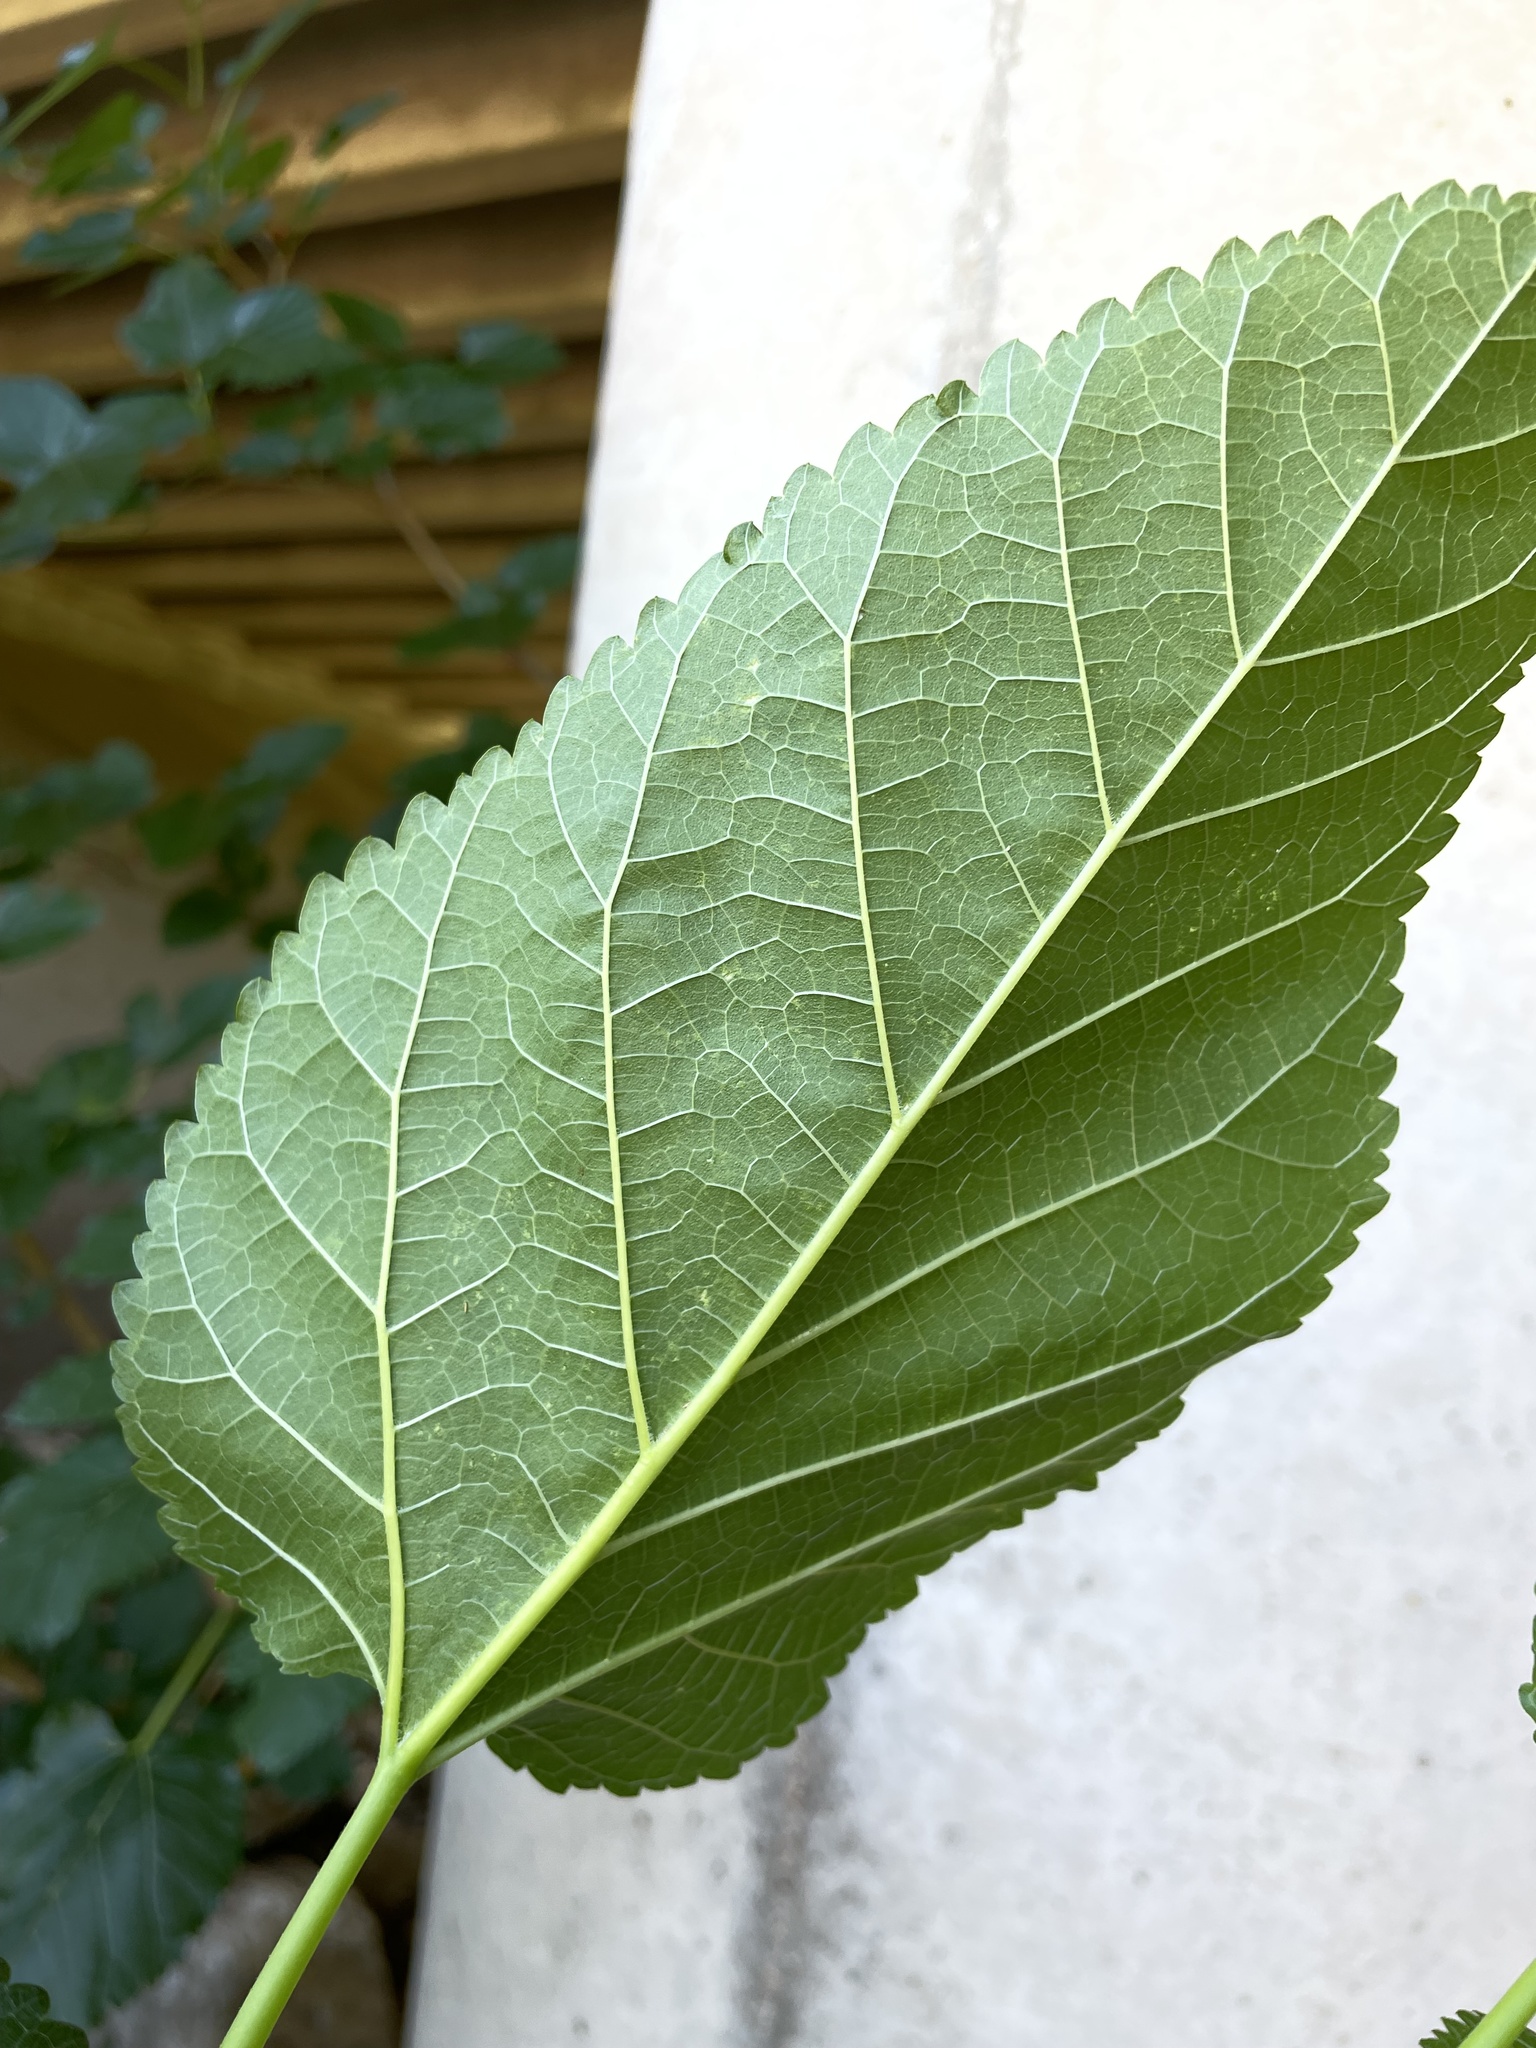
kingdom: Plantae
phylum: Tracheophyta
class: Magnoliopsida
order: Rosales
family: Moraceae
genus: Morus
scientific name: Morus alba
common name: White mulberry
